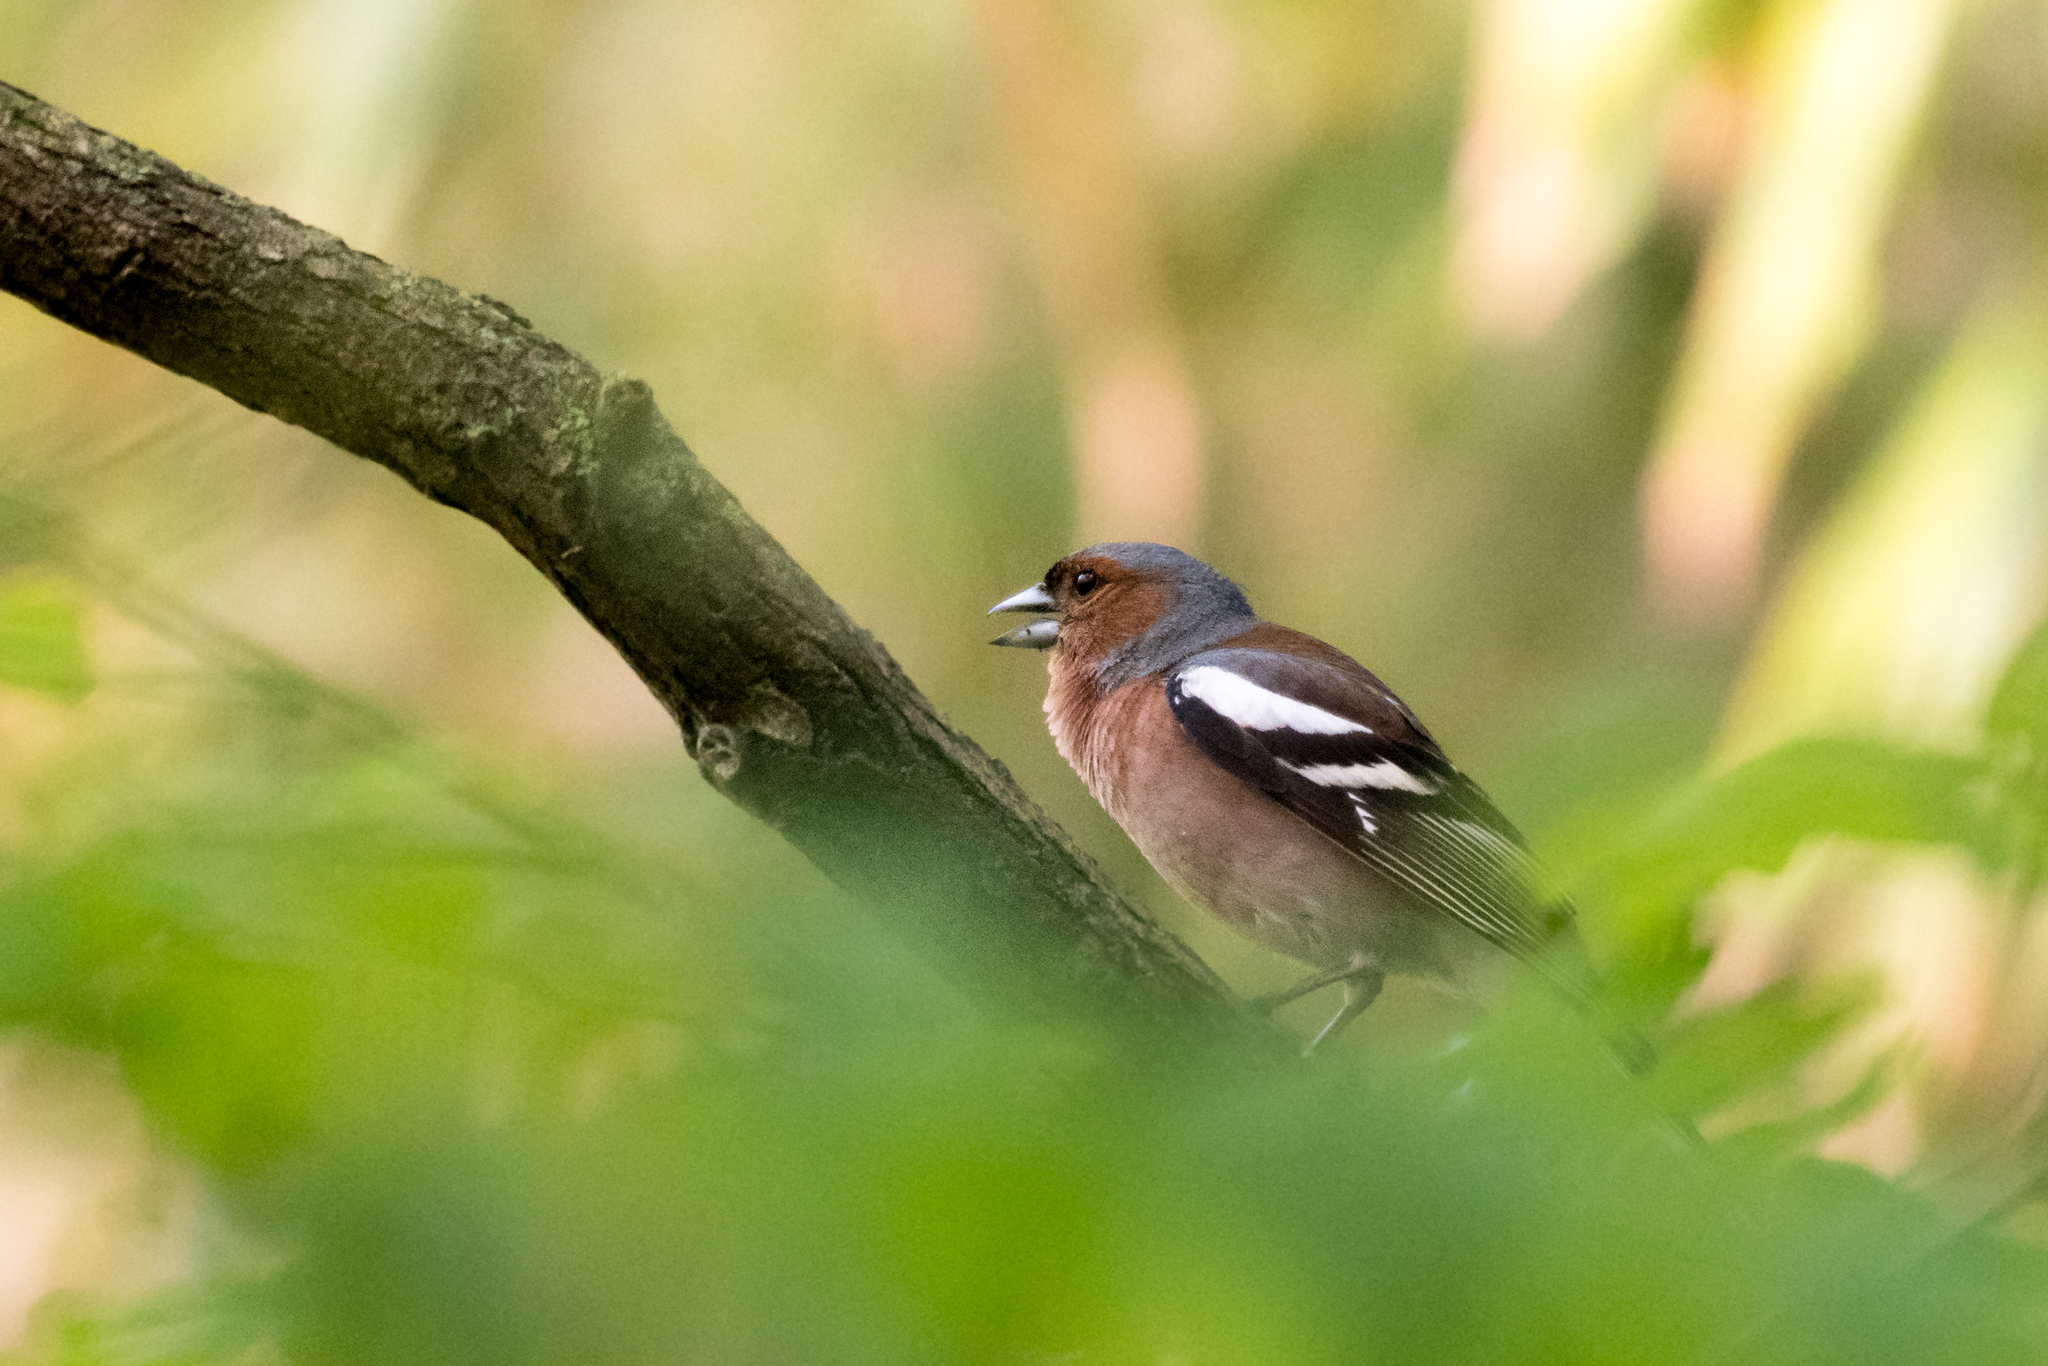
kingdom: Animalia
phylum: Chordata
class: Aves
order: Passeriformes
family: Fringillidae
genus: Fringilla
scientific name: Fringilla coelebs
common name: Common chaffinch
